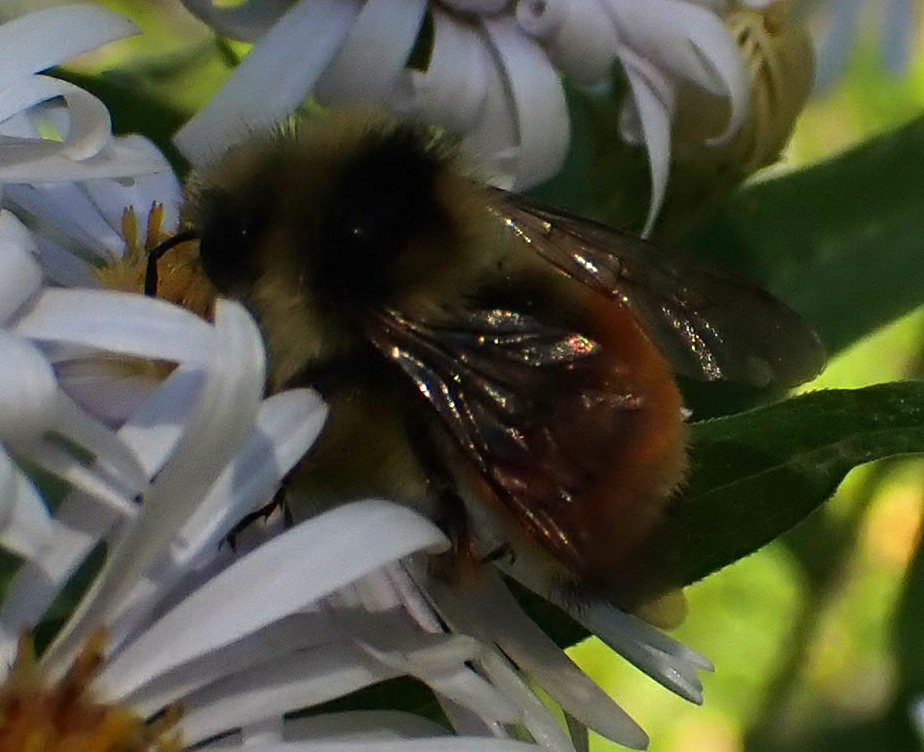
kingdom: Animalia
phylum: Arthropoda
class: Insecta
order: Hymenoptera
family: Apidae
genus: Bombus
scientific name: Bombus ternarius
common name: Tri-colored bumble bee
